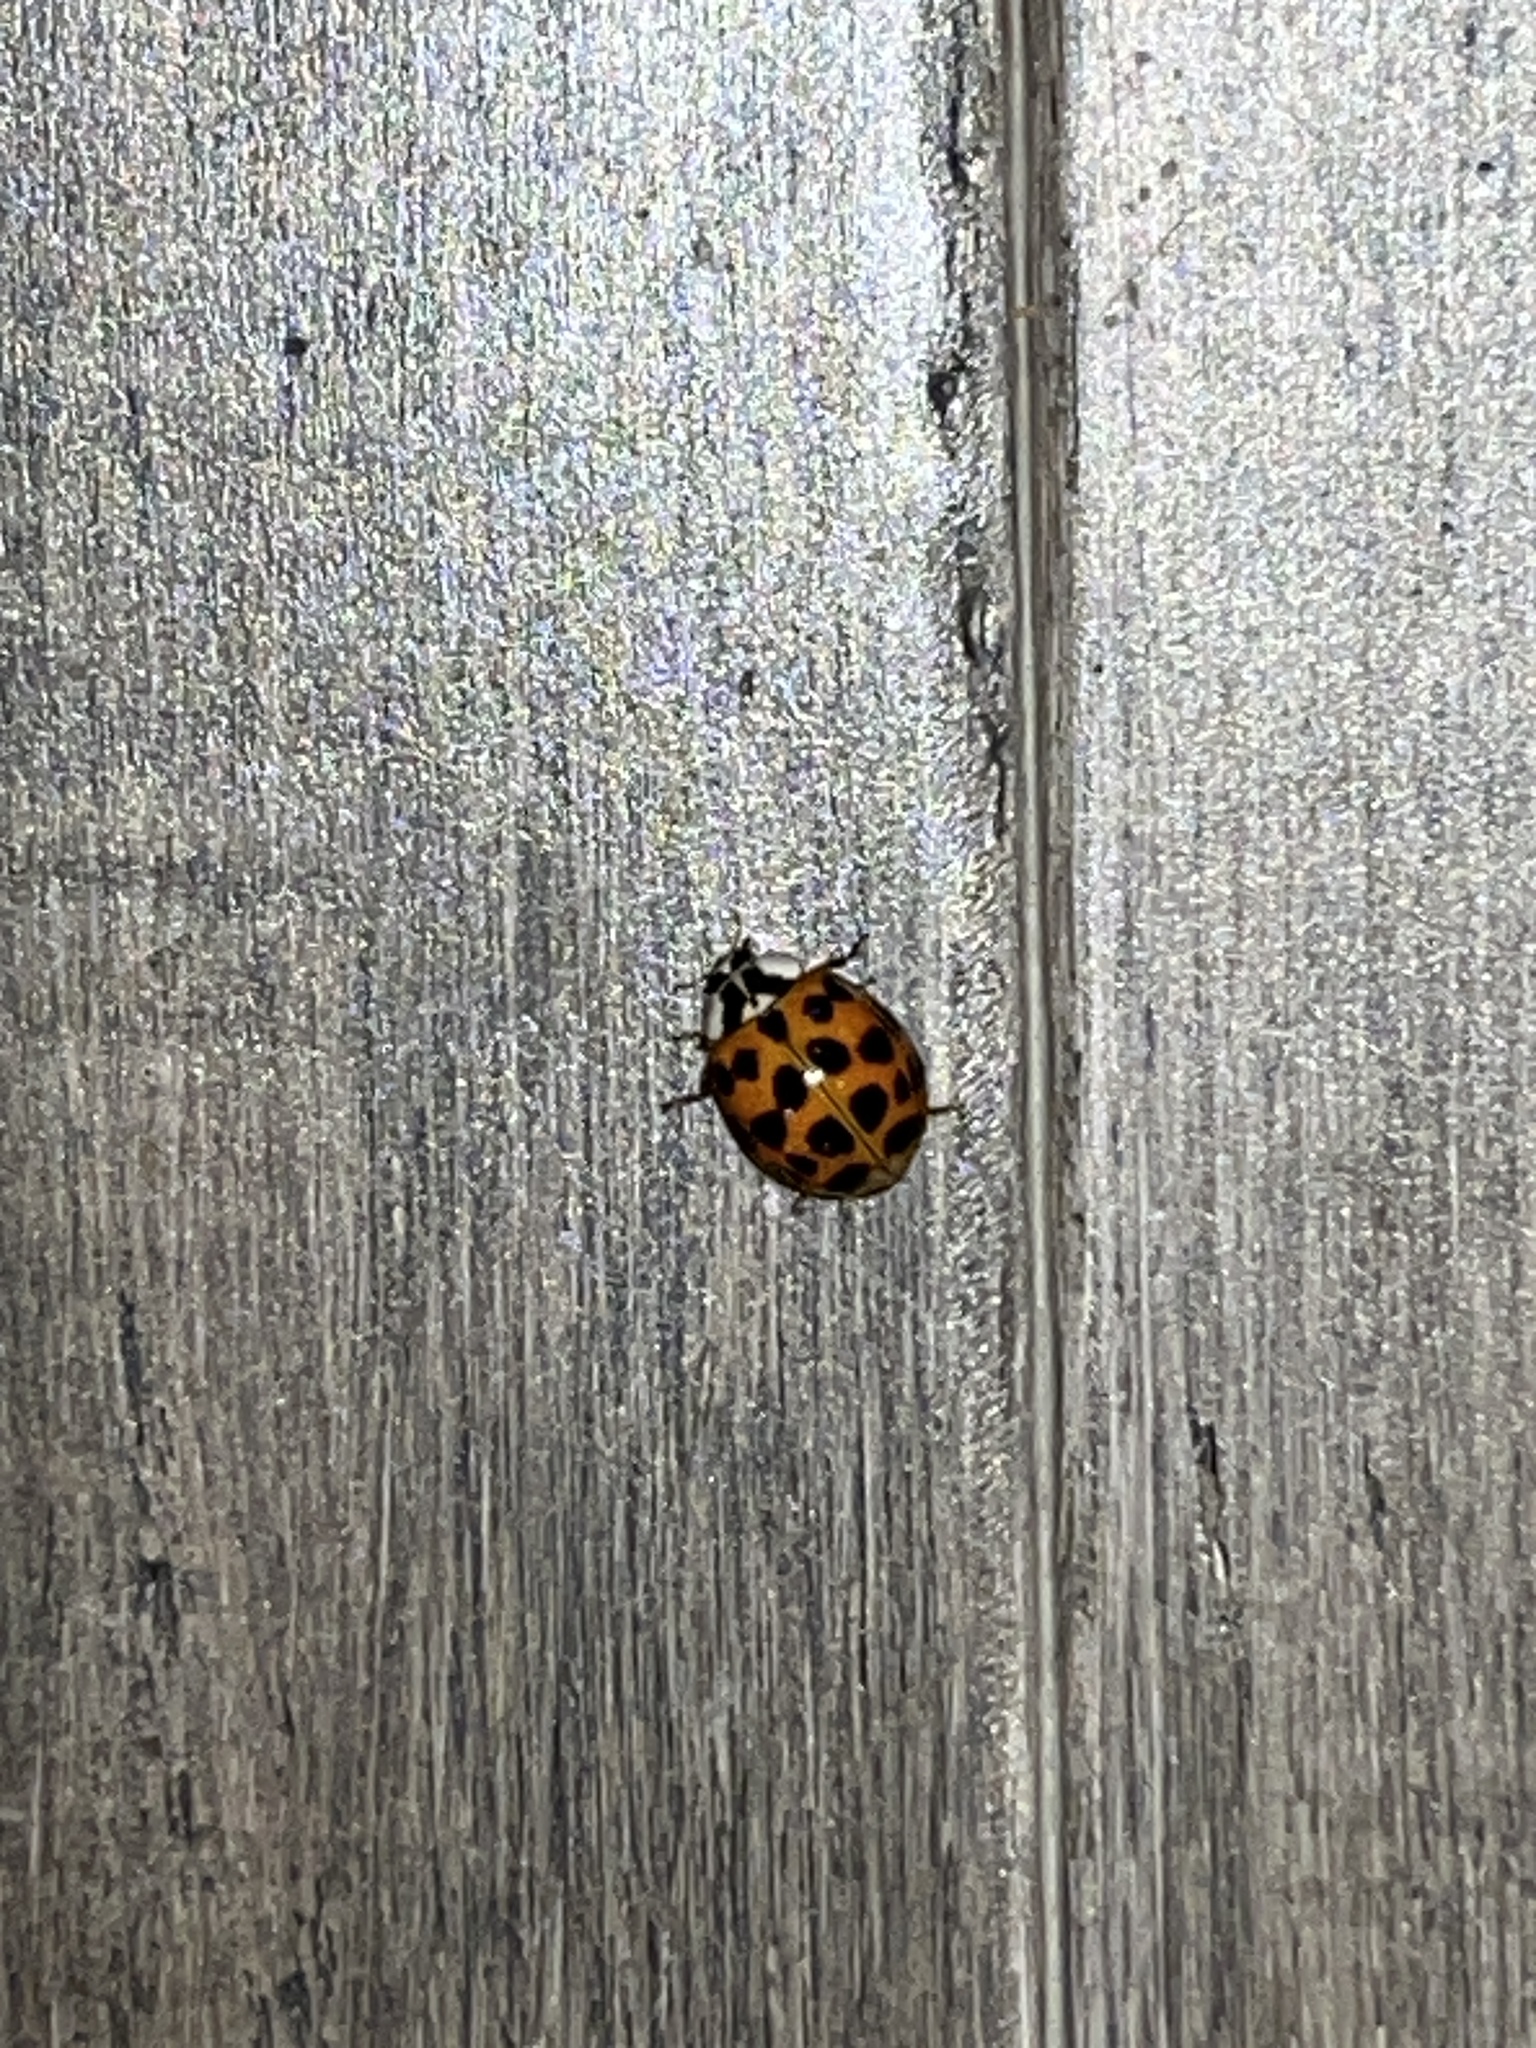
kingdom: Animalia
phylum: Arthropoda
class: Insecta
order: Coleoptera
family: Coccinellidae
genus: Harmonia
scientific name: Harmonia axyridis
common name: Harlequin ladybird
